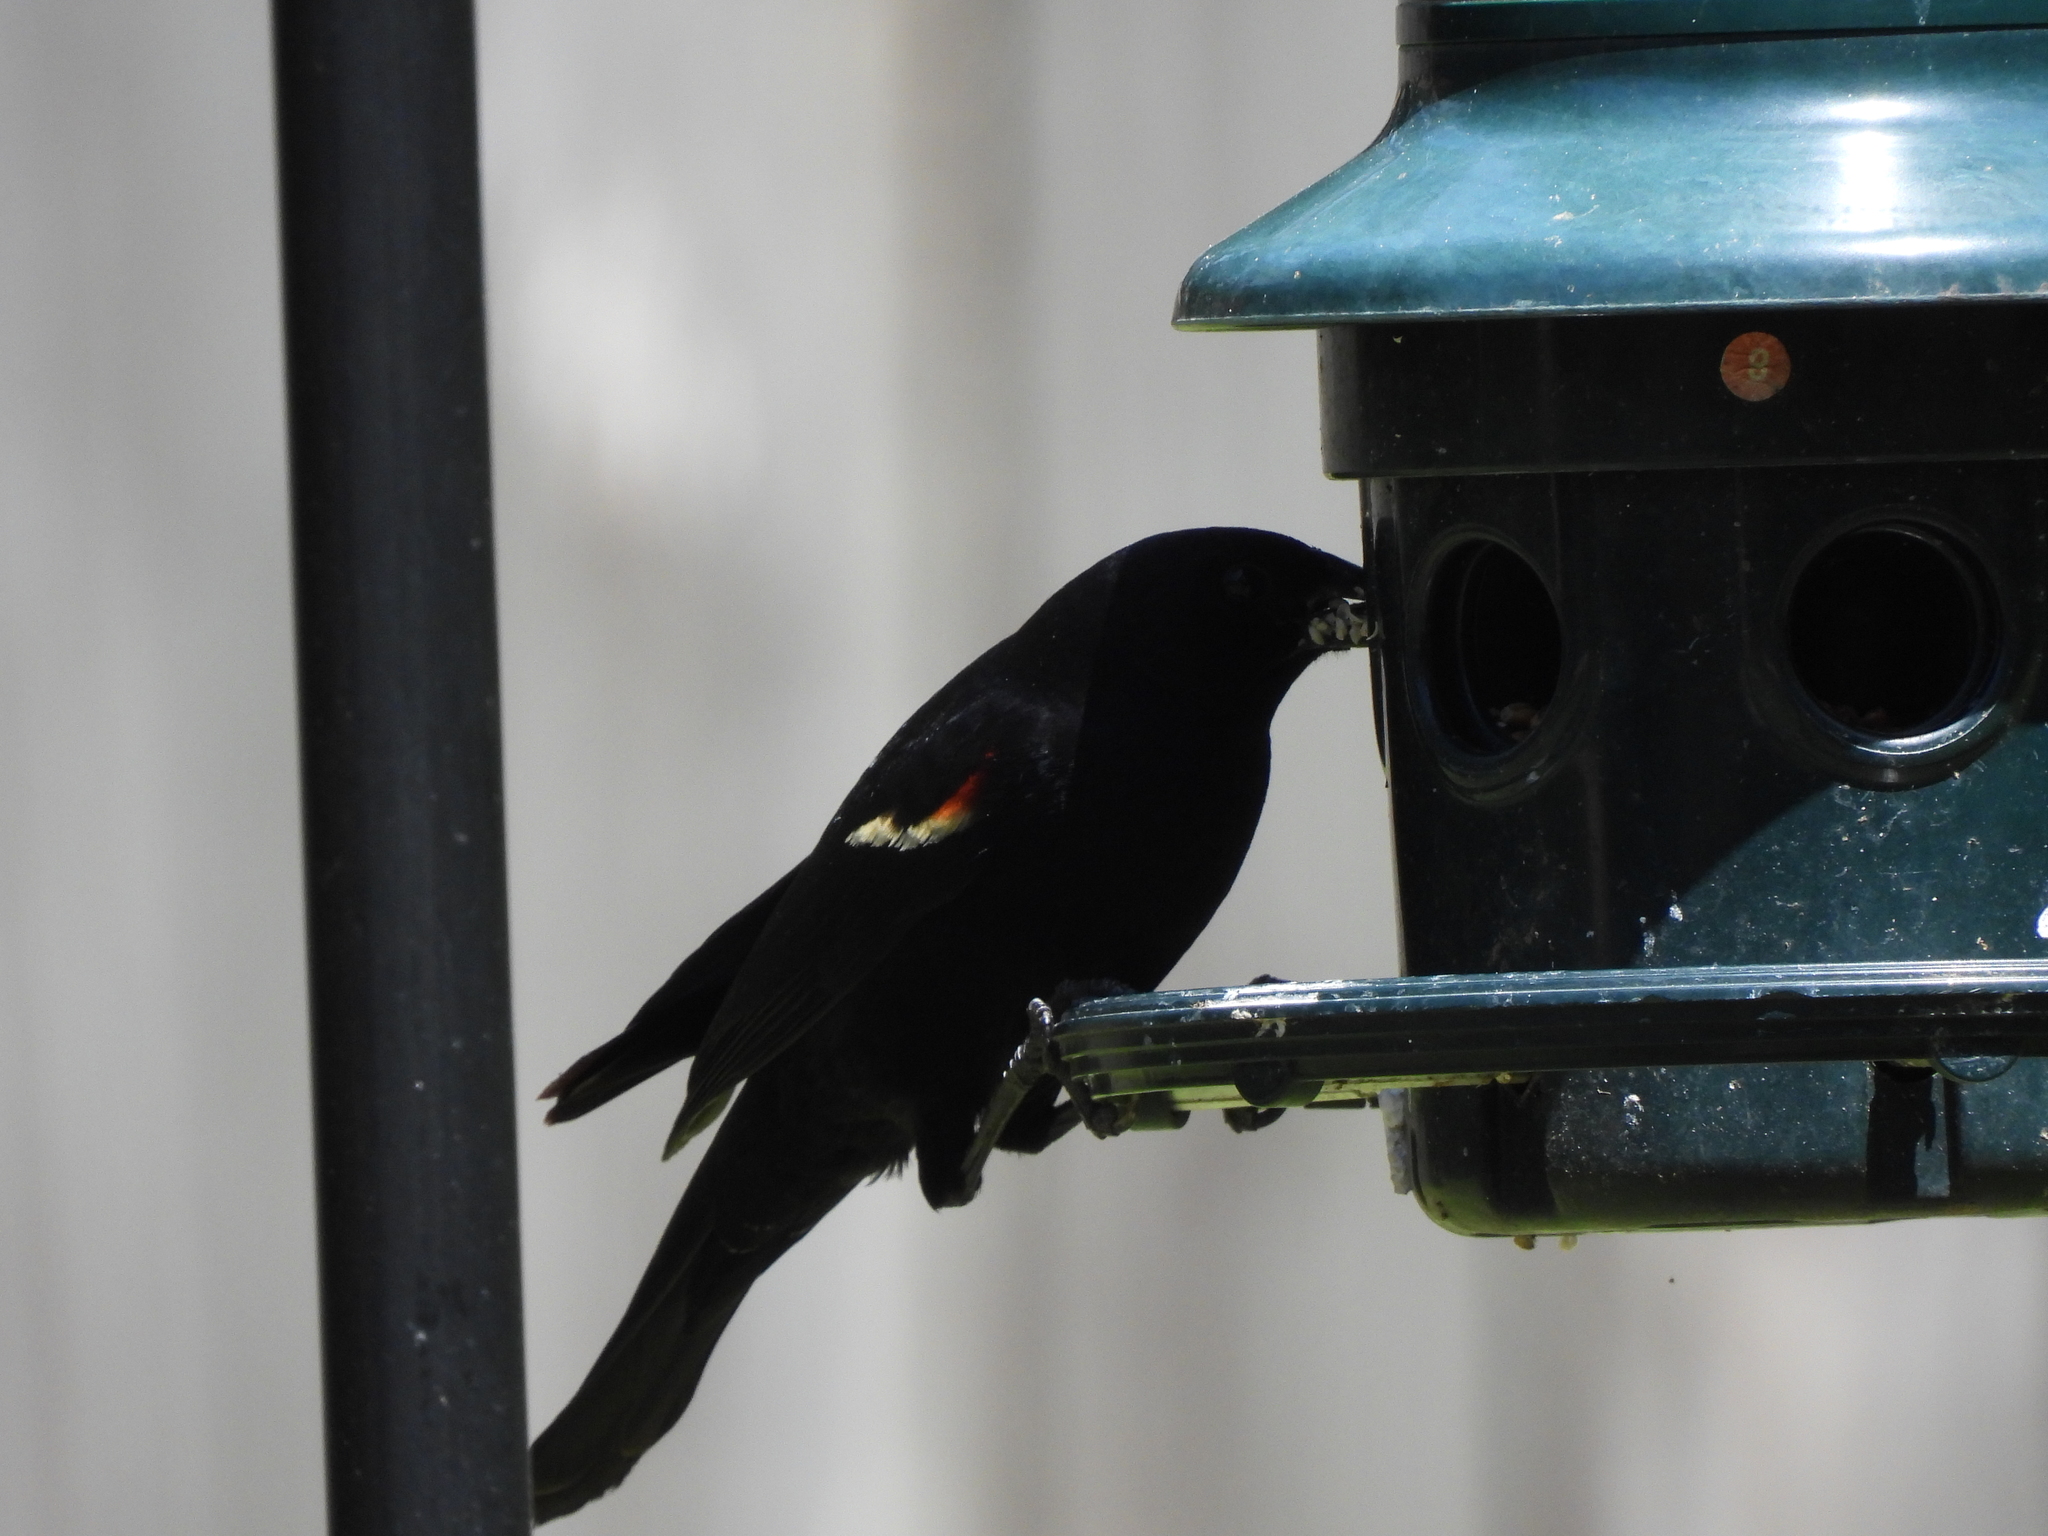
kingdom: Animalia
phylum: Chordata
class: Aves
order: Passeriformes
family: Icteridae
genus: Agelaius
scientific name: Agelaius phoeniceus
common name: Red-winged blackbird
